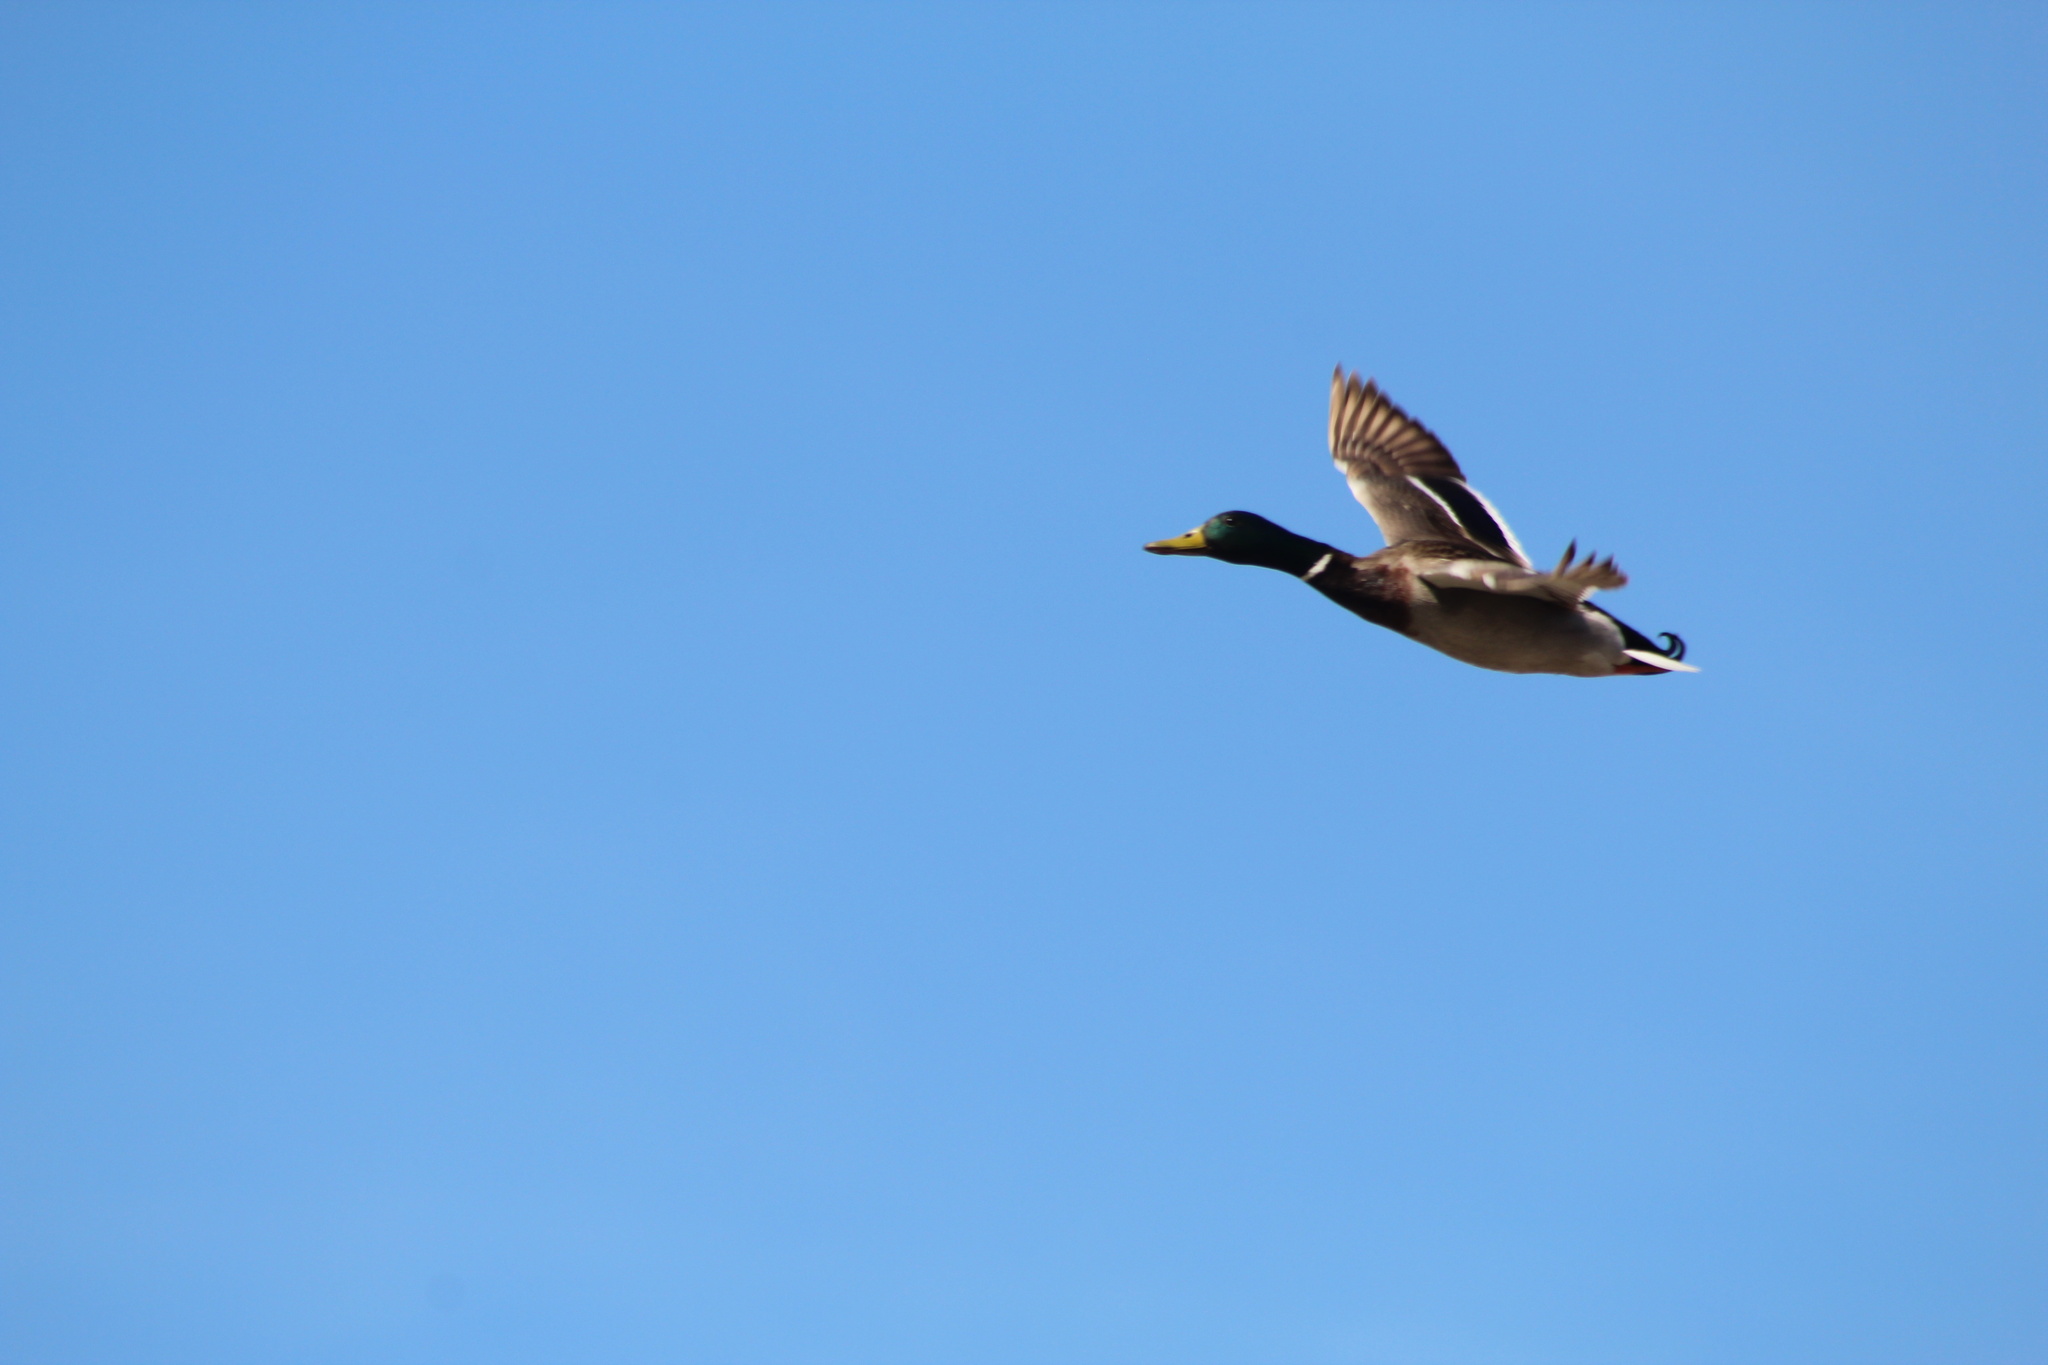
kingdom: Animalia
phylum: Chordata
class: Aves
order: Anseriformes
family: Anatidae
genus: Anas
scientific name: Anas platyrhynchos
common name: Mallard
